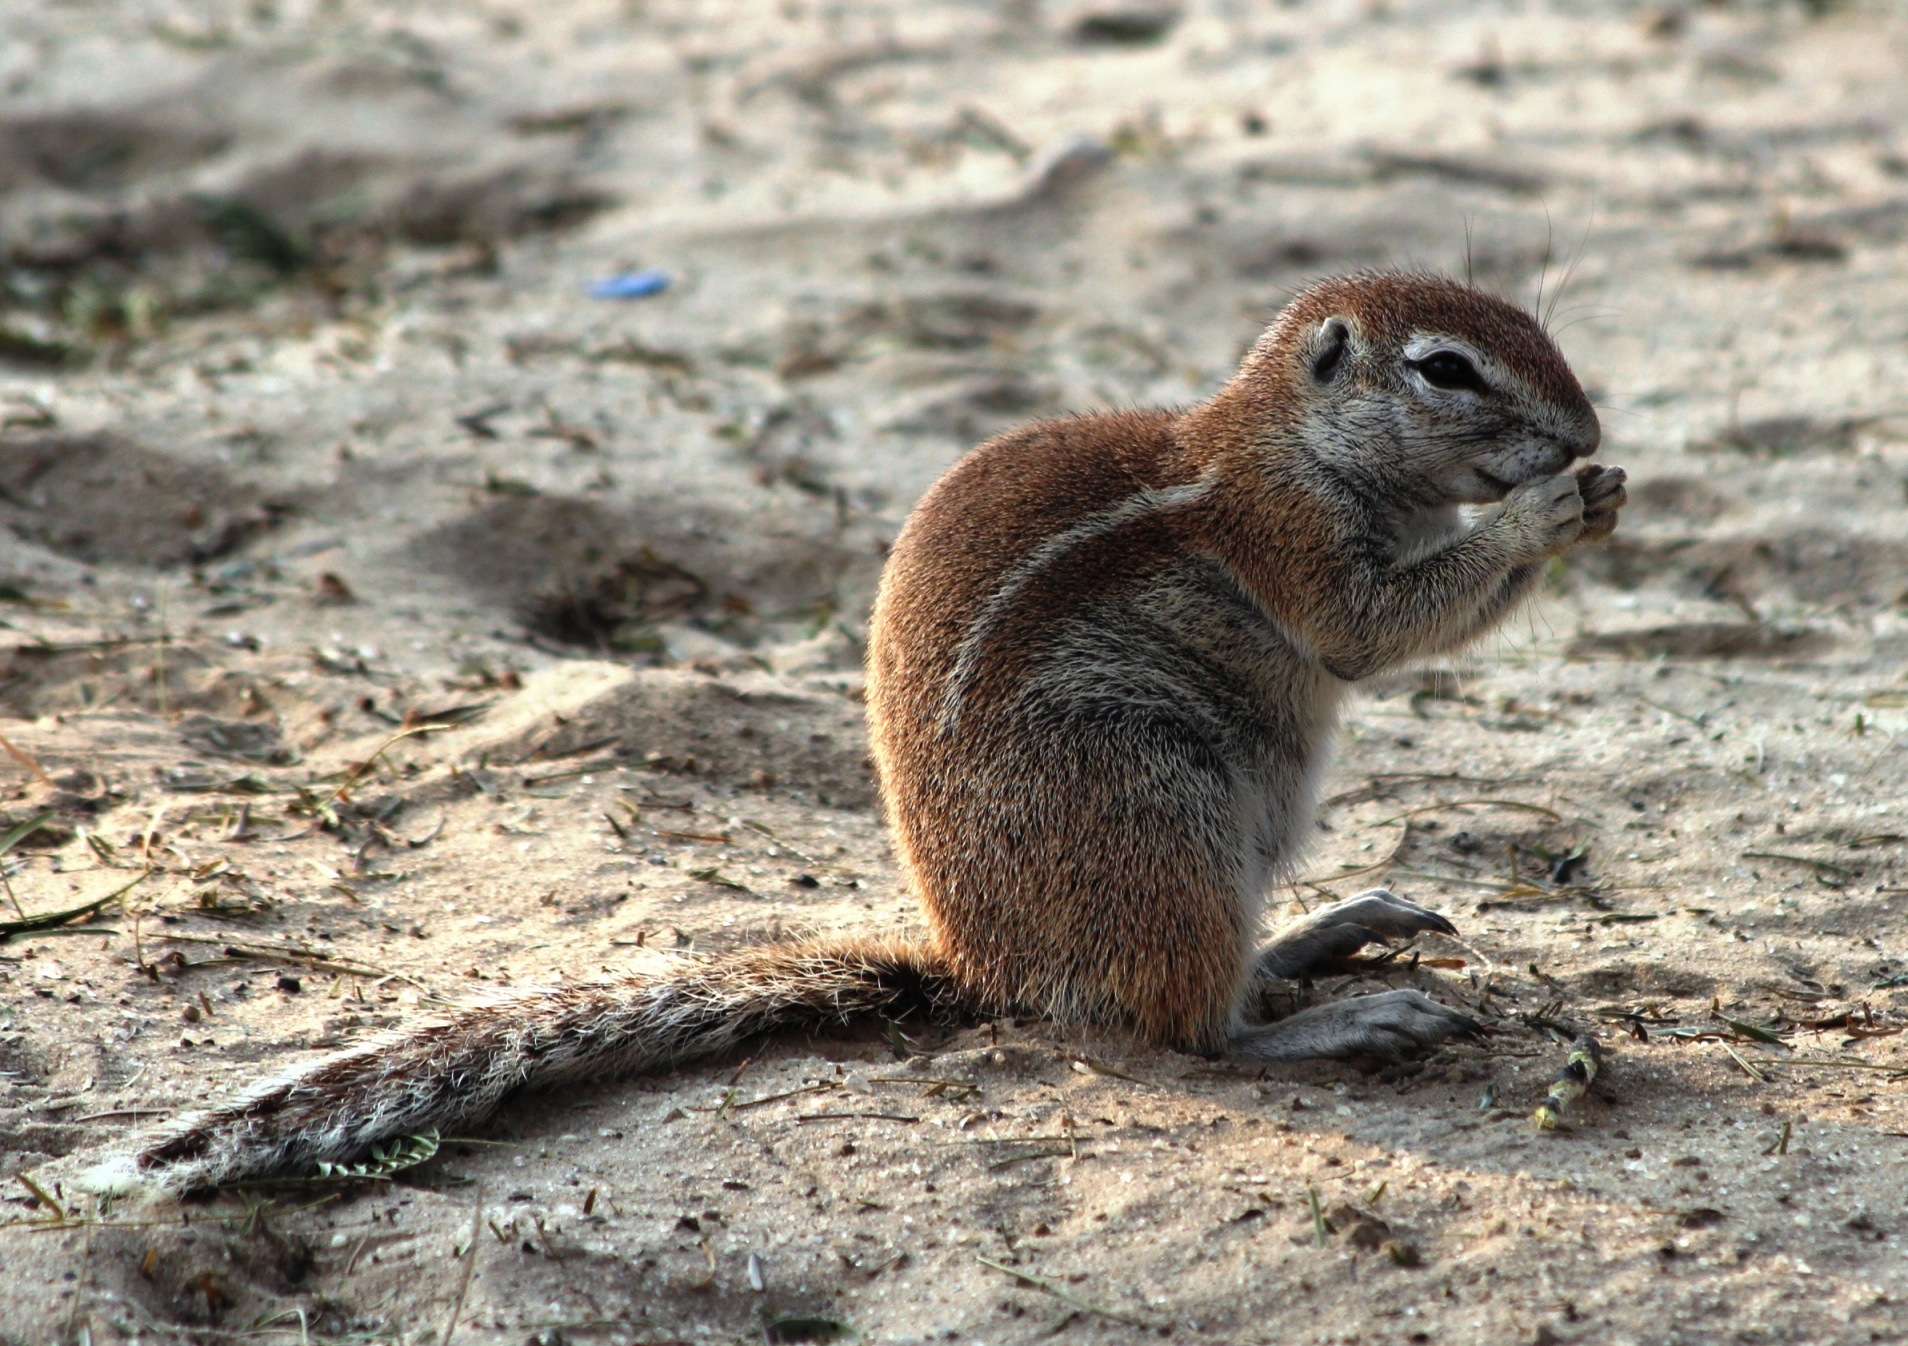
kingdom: Animalia
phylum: Chordata
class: Mammalia
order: Rodentia
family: Sciuridae
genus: Xerus
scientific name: Xerus inauris
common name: South african ground squirrel
